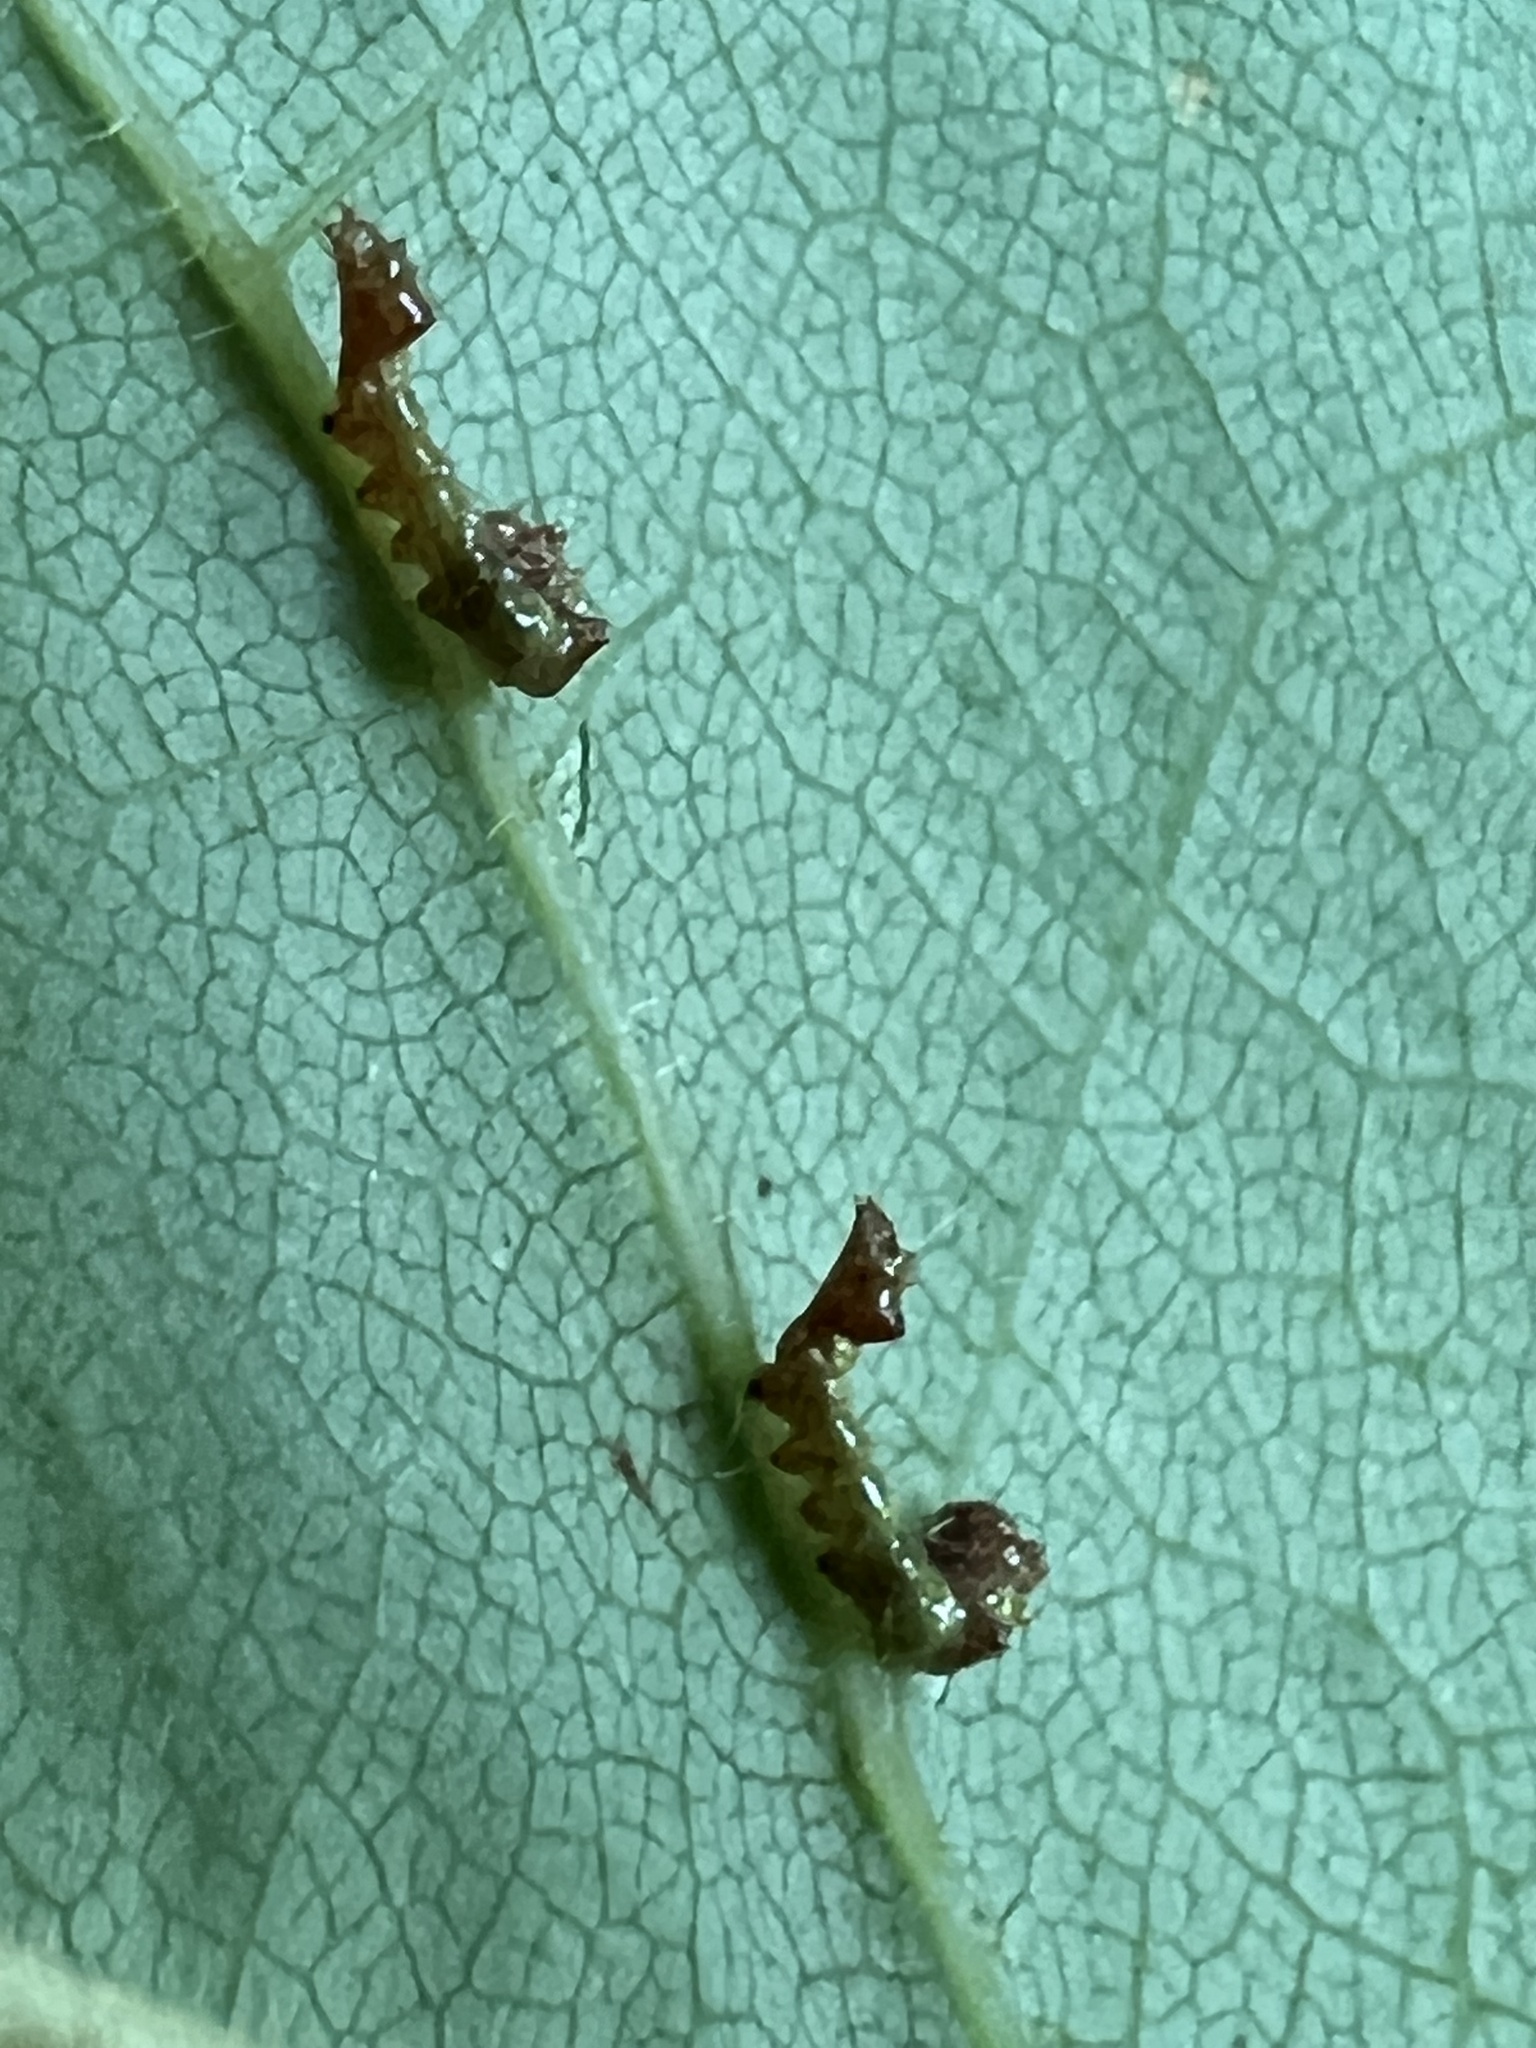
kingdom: Animalia
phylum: Arthropoda
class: Insecta
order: Lepidoptera
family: Notodontidae
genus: Schizura
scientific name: Schizura
